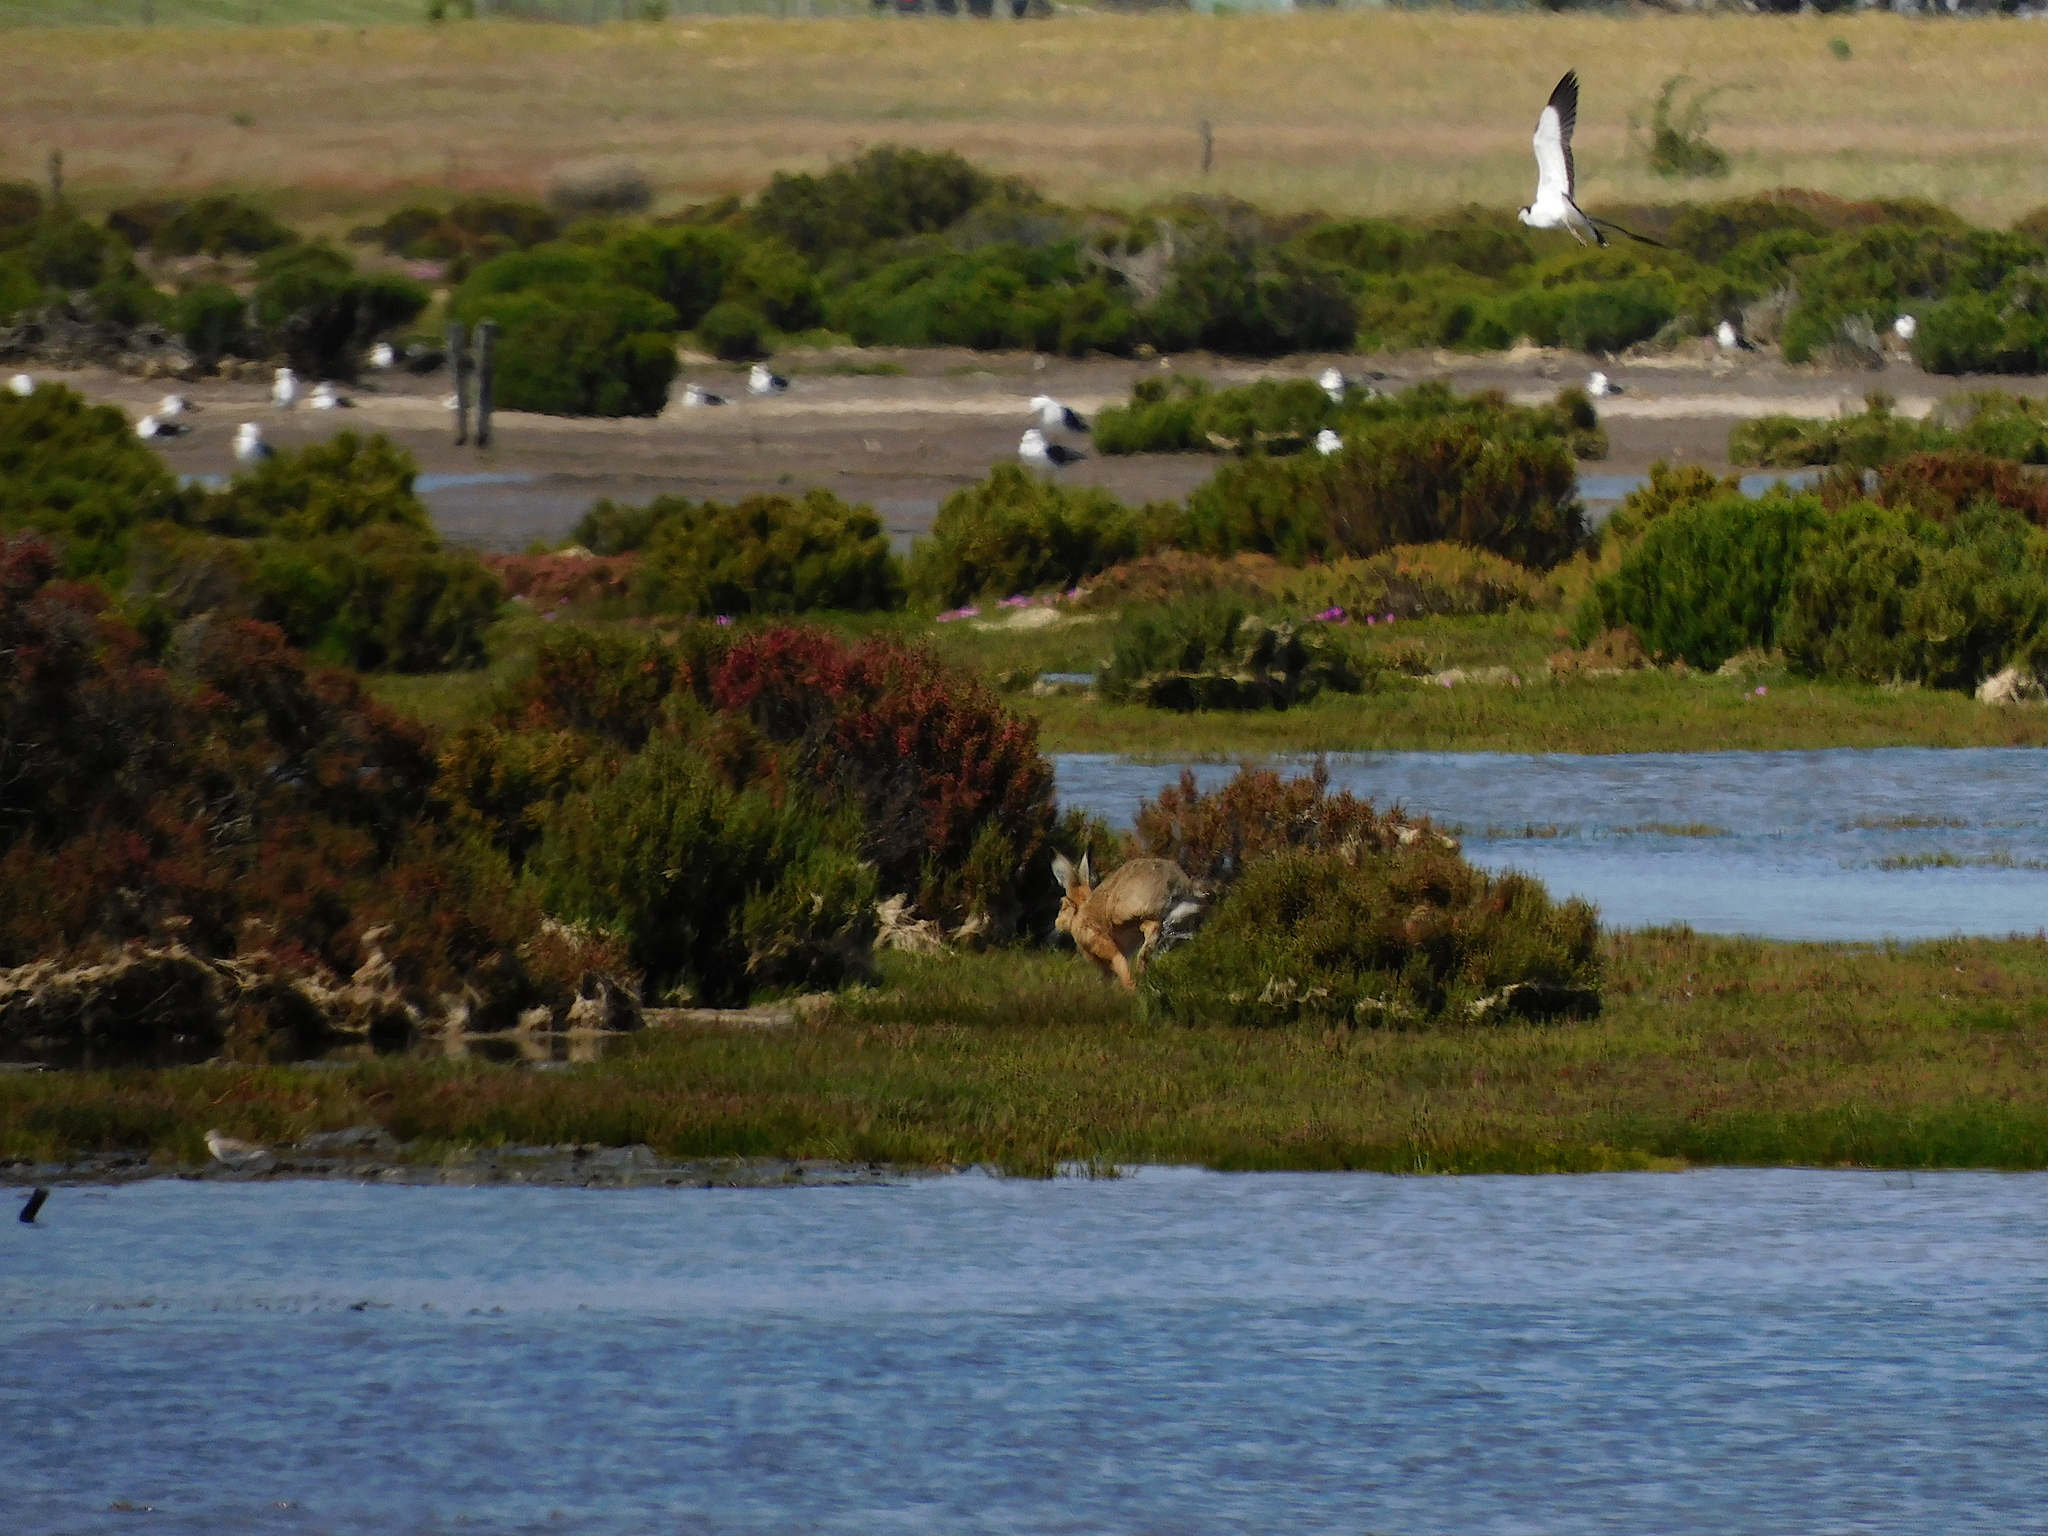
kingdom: Animalia
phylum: Chordata
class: Mammalia
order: Lagomorpha
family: Leporidae
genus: Lepus
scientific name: Lepus europaeus
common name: European hare
